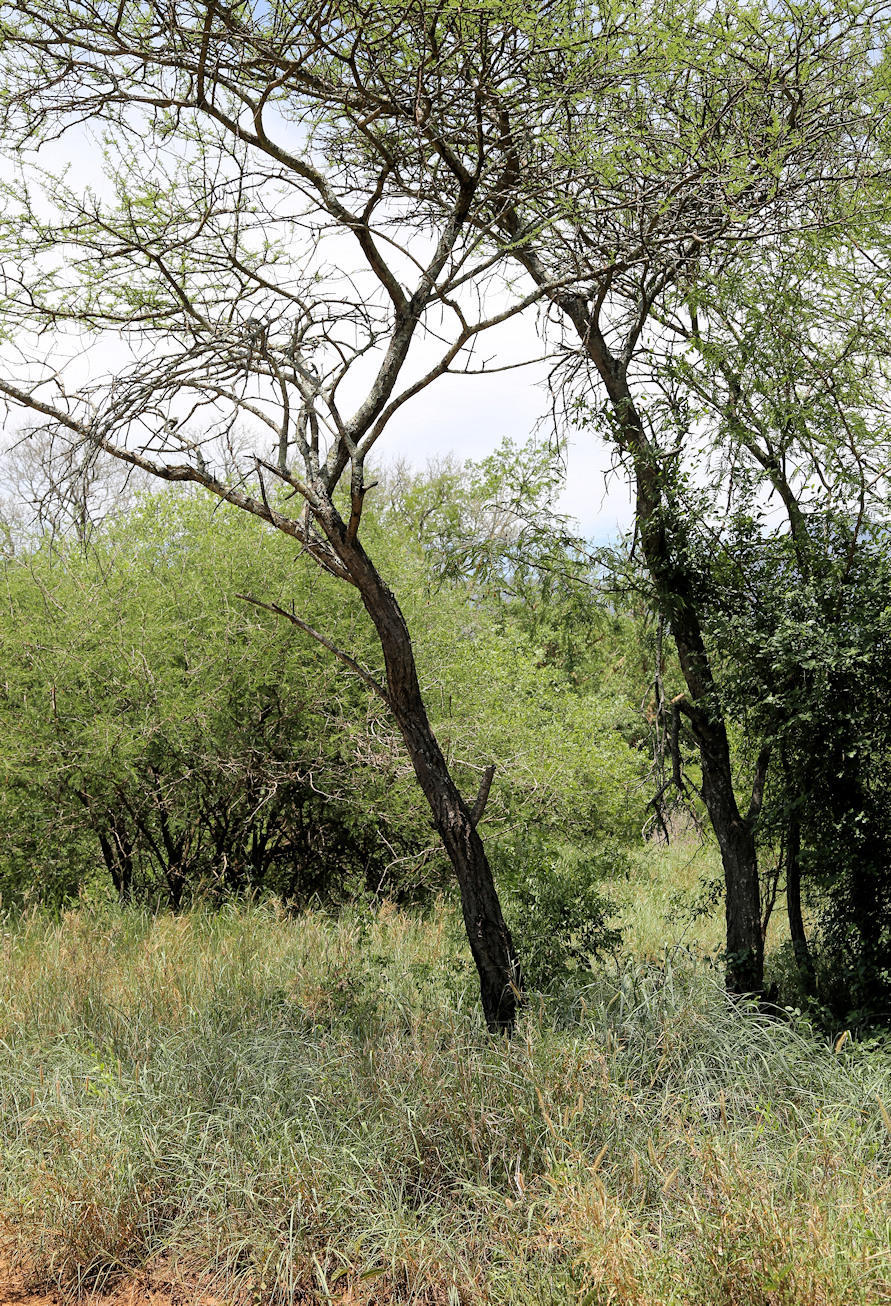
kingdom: Plantae
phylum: Tracheophyta
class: Magnoliopsida
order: Fabales
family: Fabaceae
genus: Vachellia
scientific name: Vachellia nilotica
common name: Arabic gumtree
